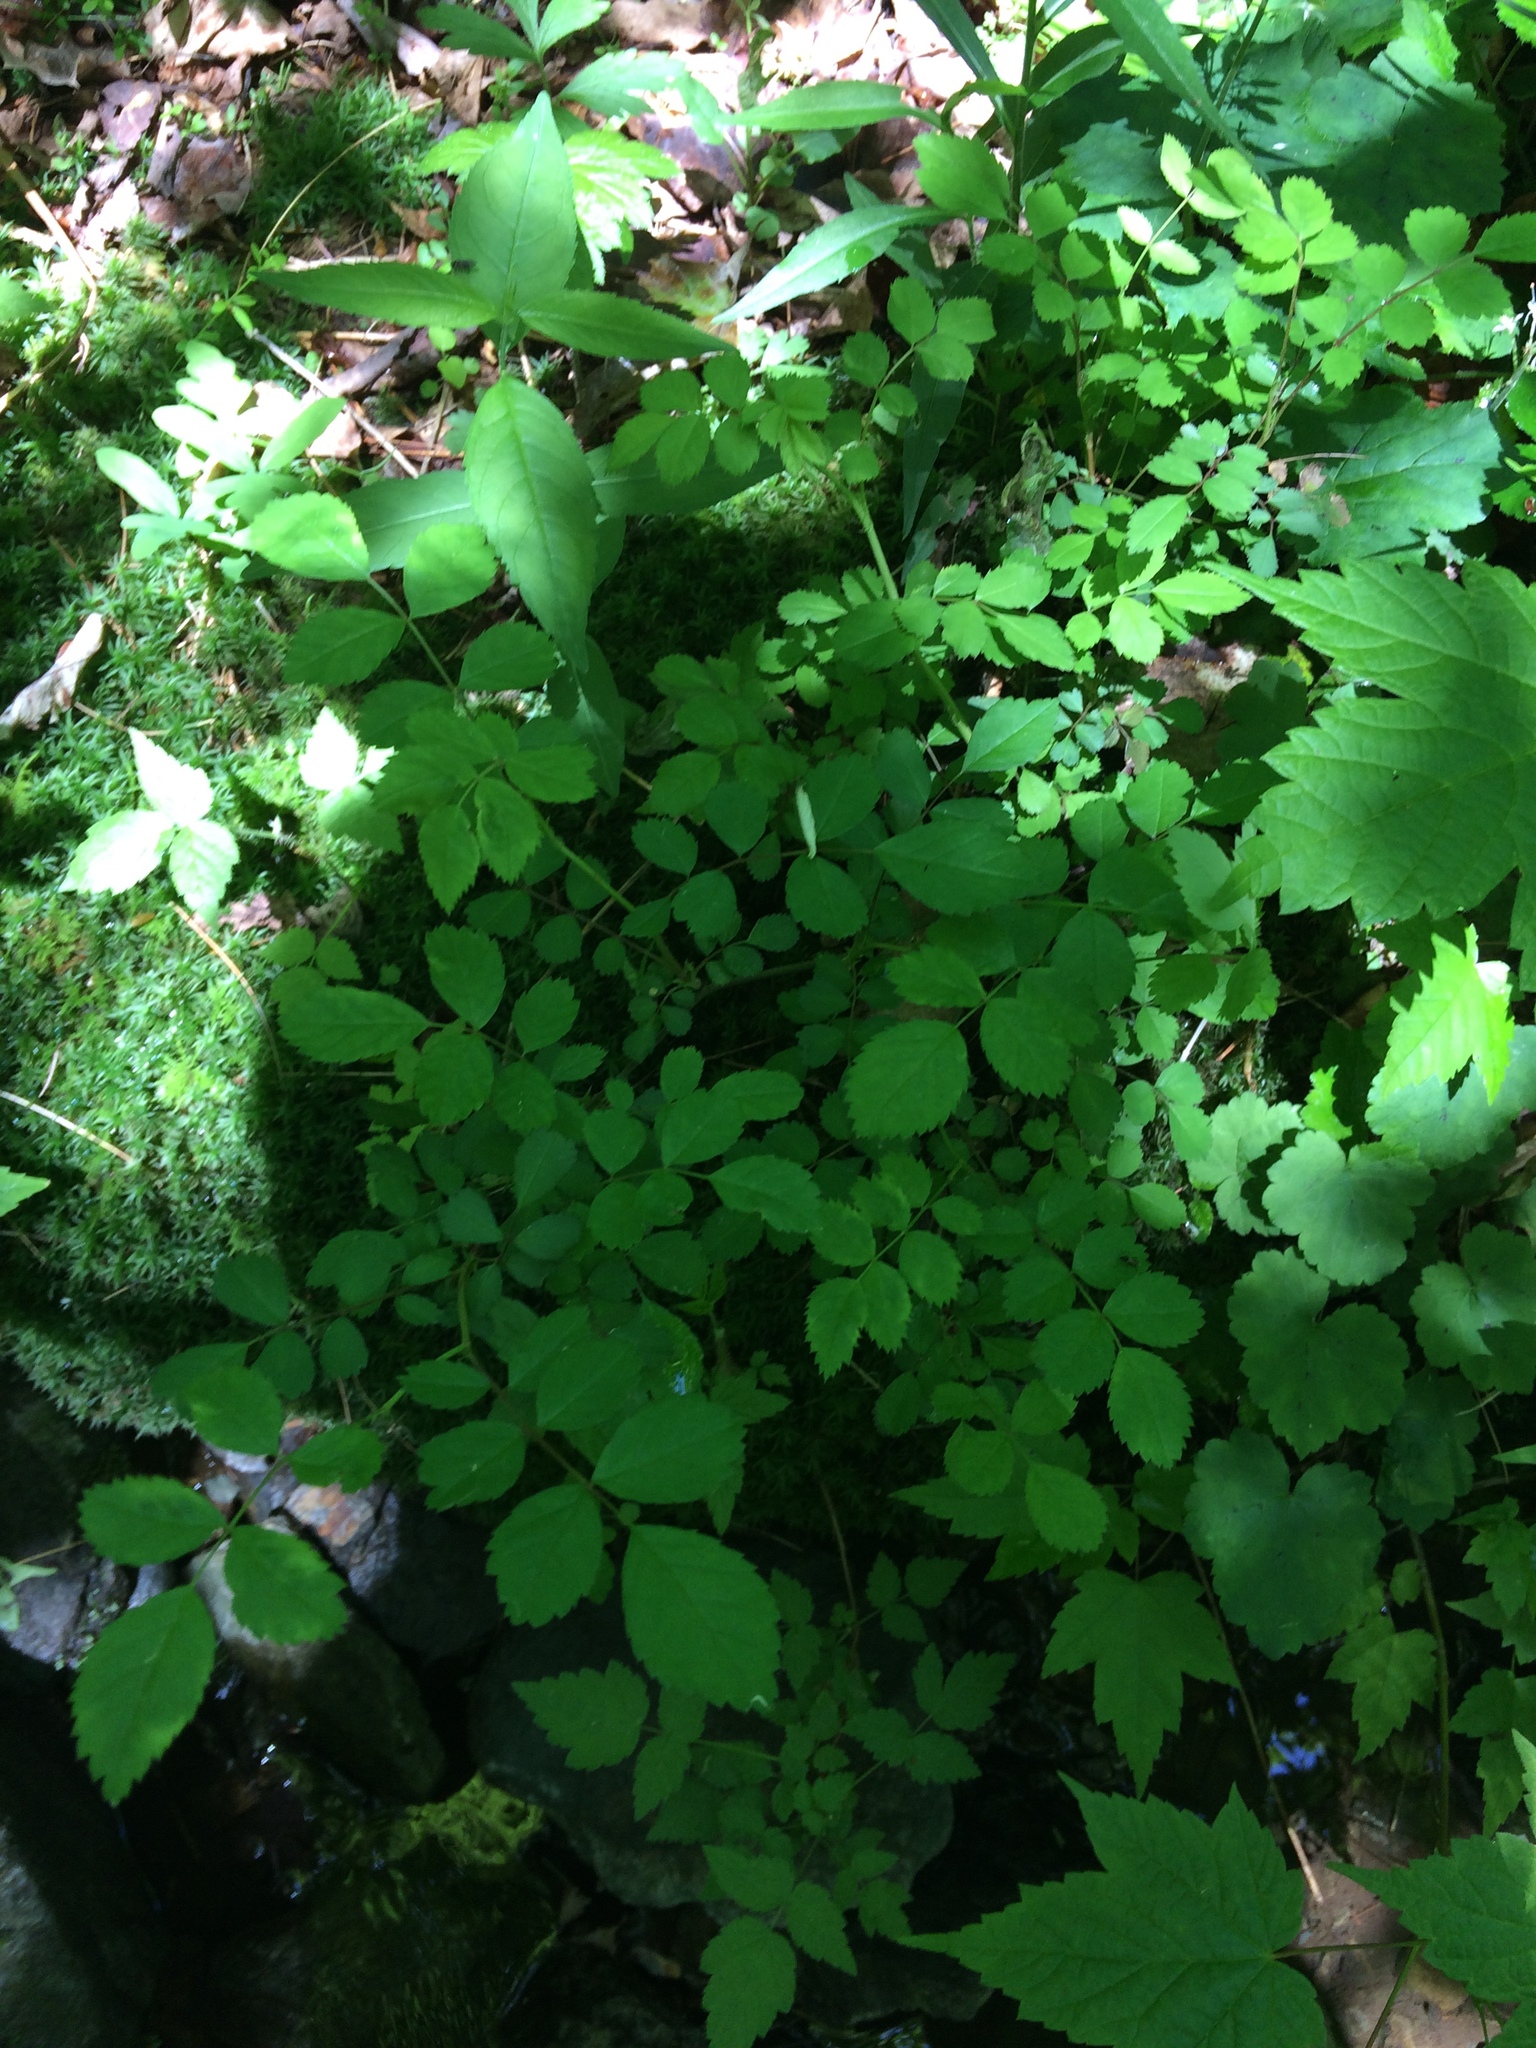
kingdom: Plantae
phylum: Tracheophyta
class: Magnoliopsida
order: Rosales
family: Rosaceae
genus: Rosa
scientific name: Rosa multiflora
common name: Multiflora rose
